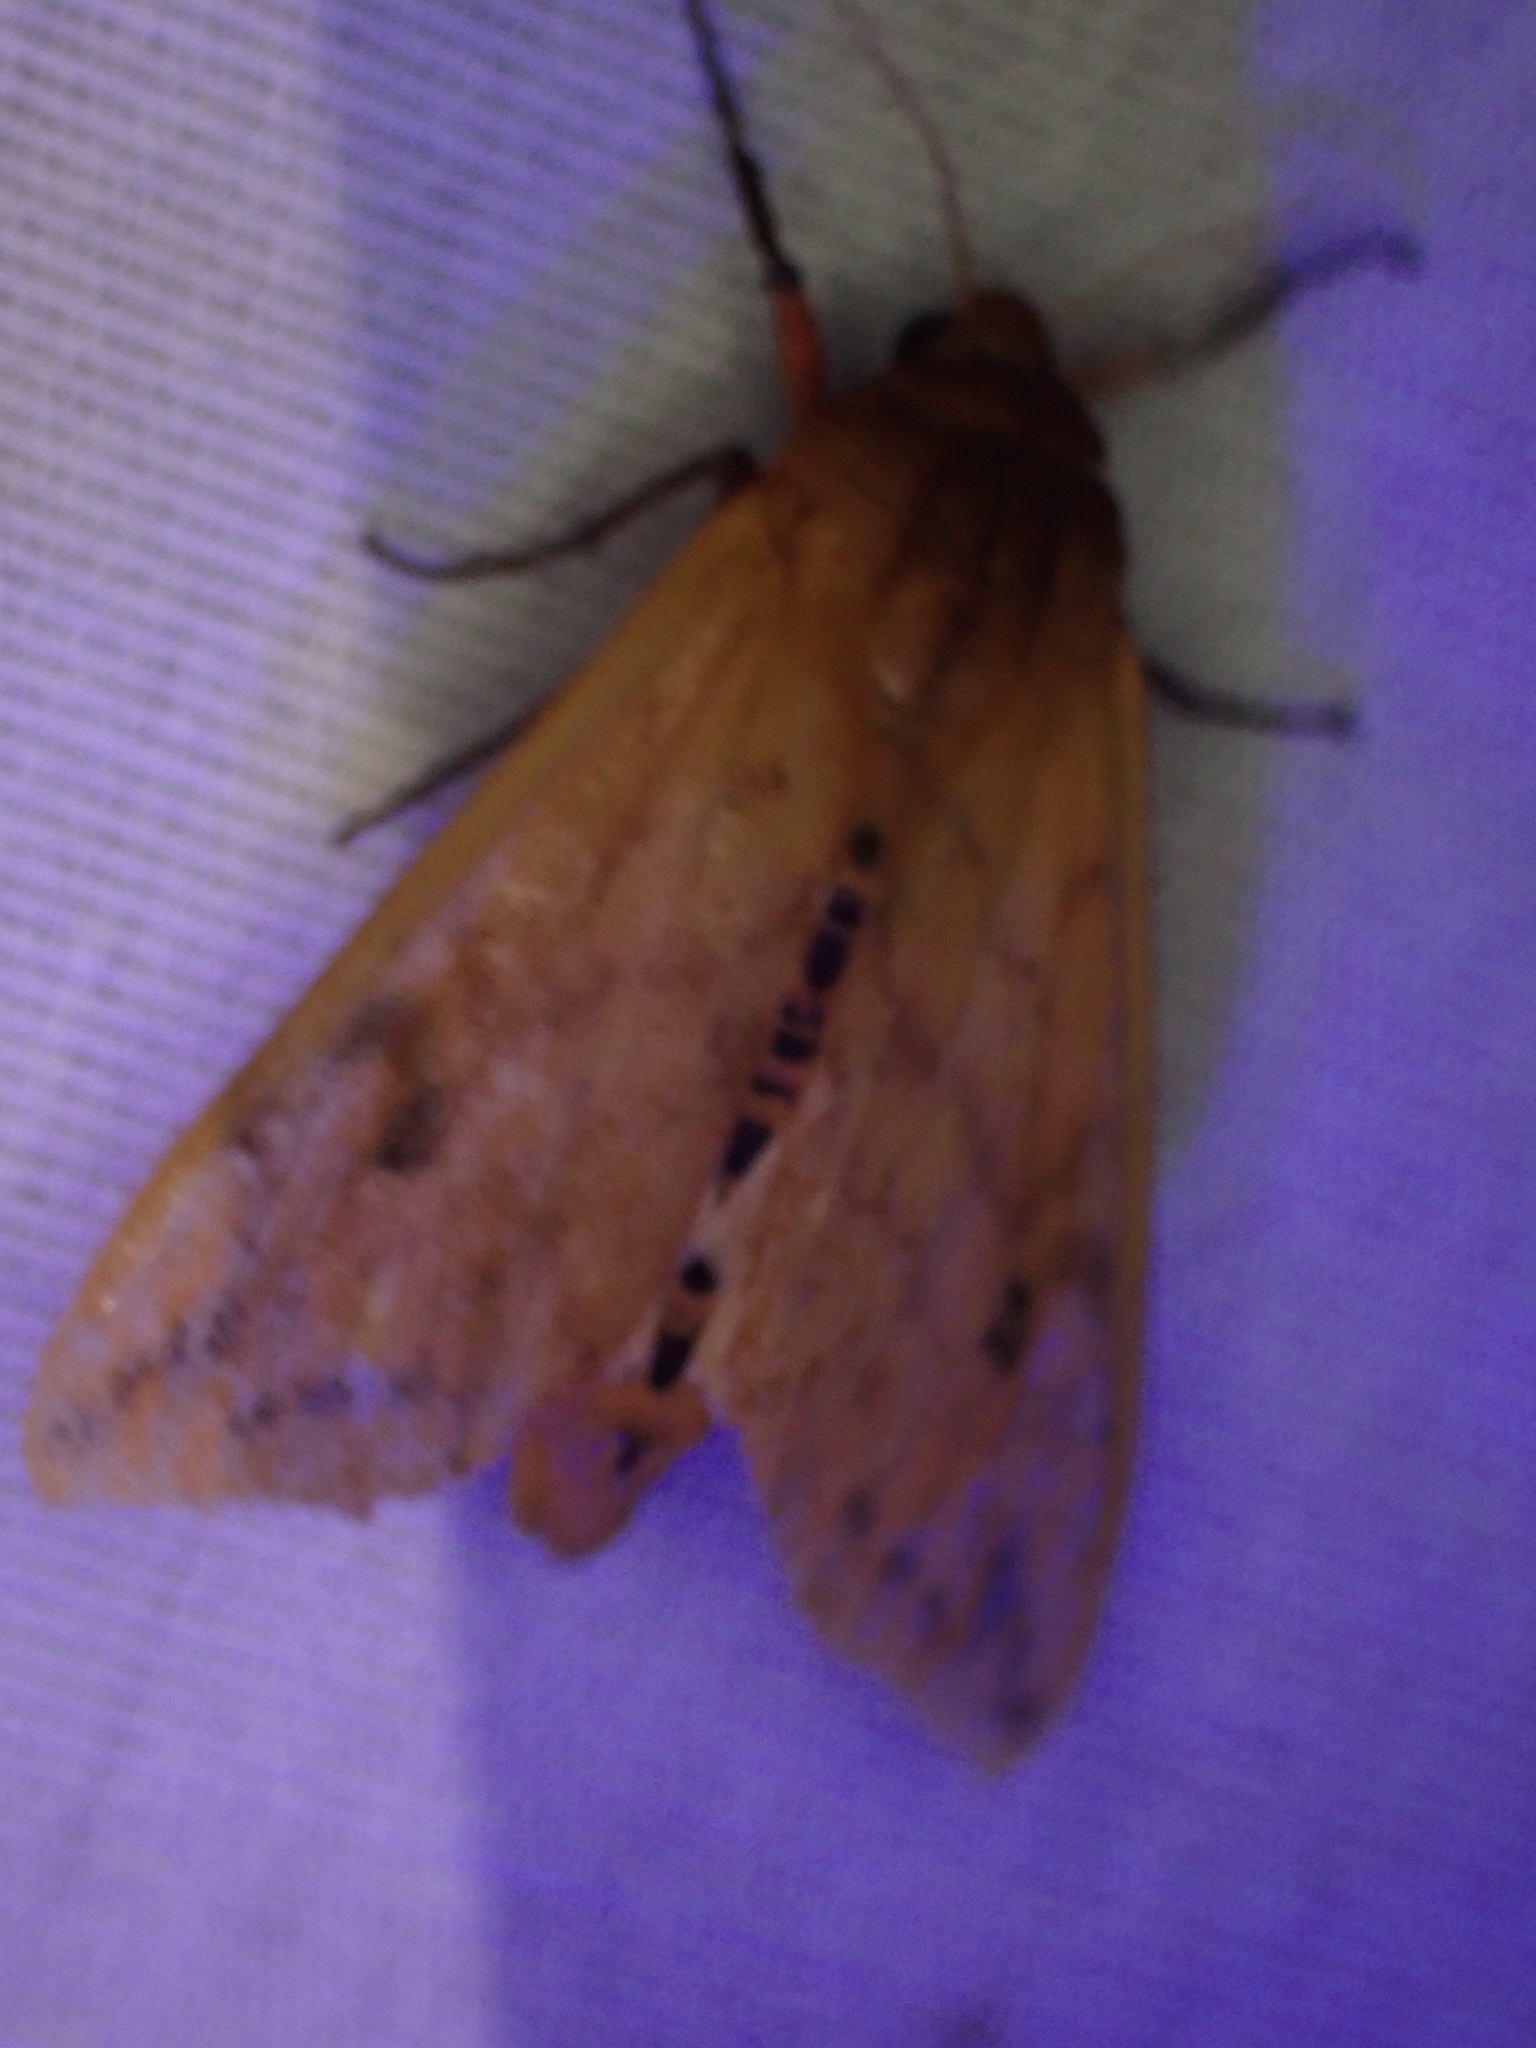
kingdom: Animalia
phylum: Arthropoda
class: Insecta
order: Lepidoptera
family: Erebidae
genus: Pyrrharctia
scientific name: Pyrrharctia isabella
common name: Isabella tiger moth
